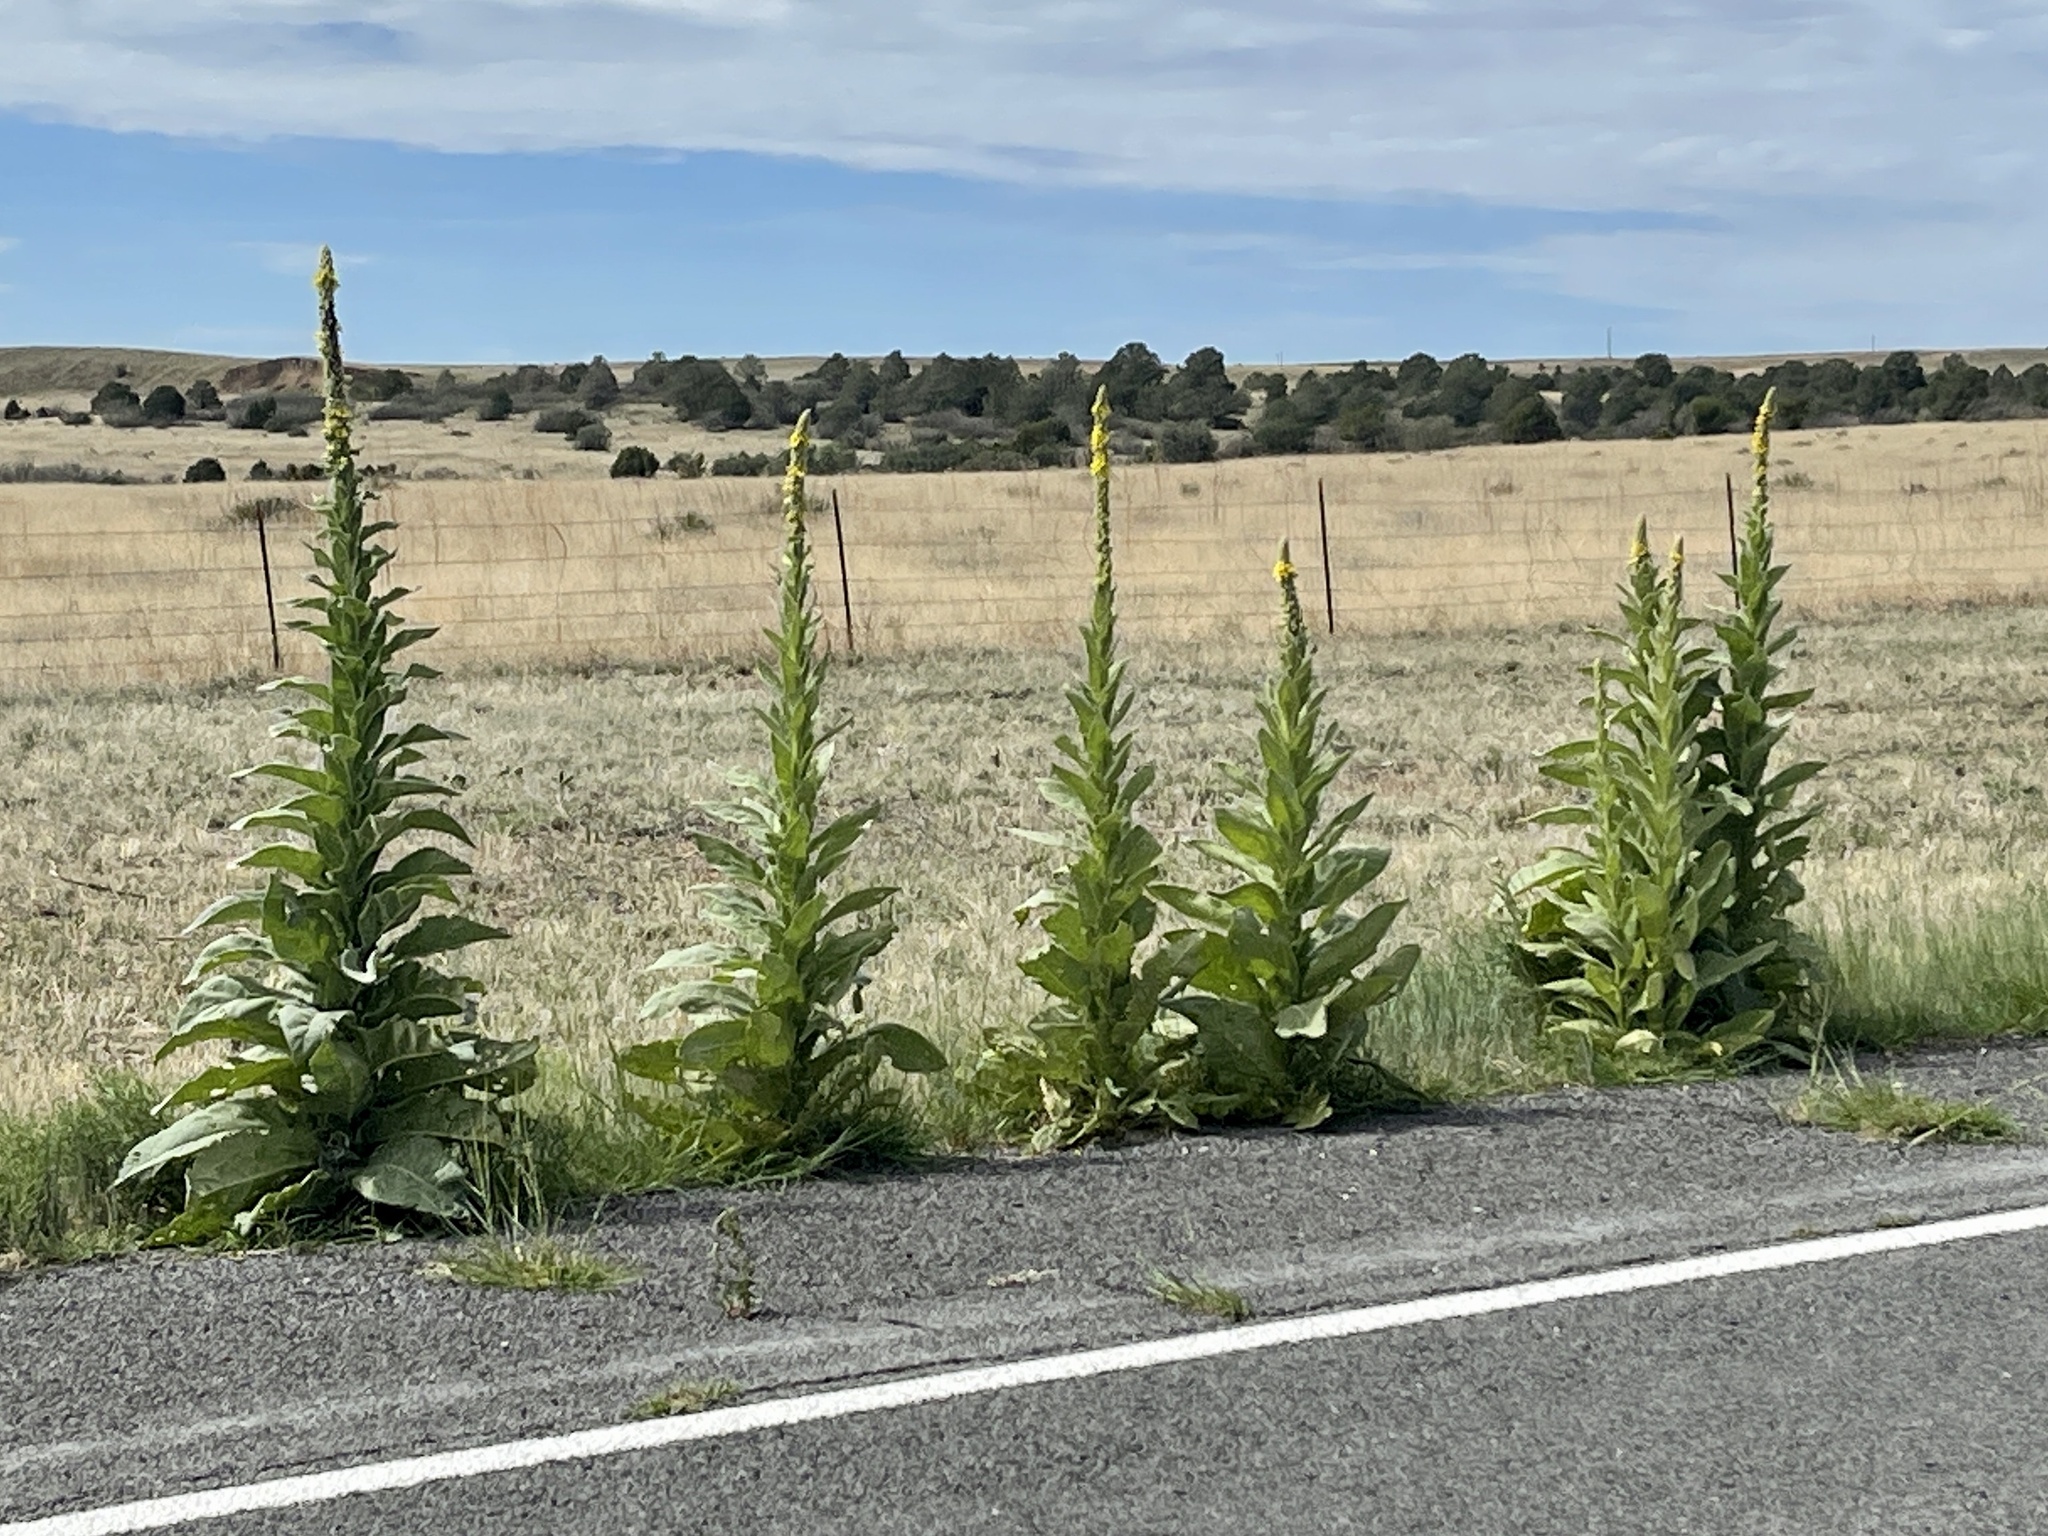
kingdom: Plantae
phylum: Tracheophyta
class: Magnoliopsida
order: Lamiales
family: Scrophulariaceae
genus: Verbascum
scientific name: Verbascum thapsus
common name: Common mullein
